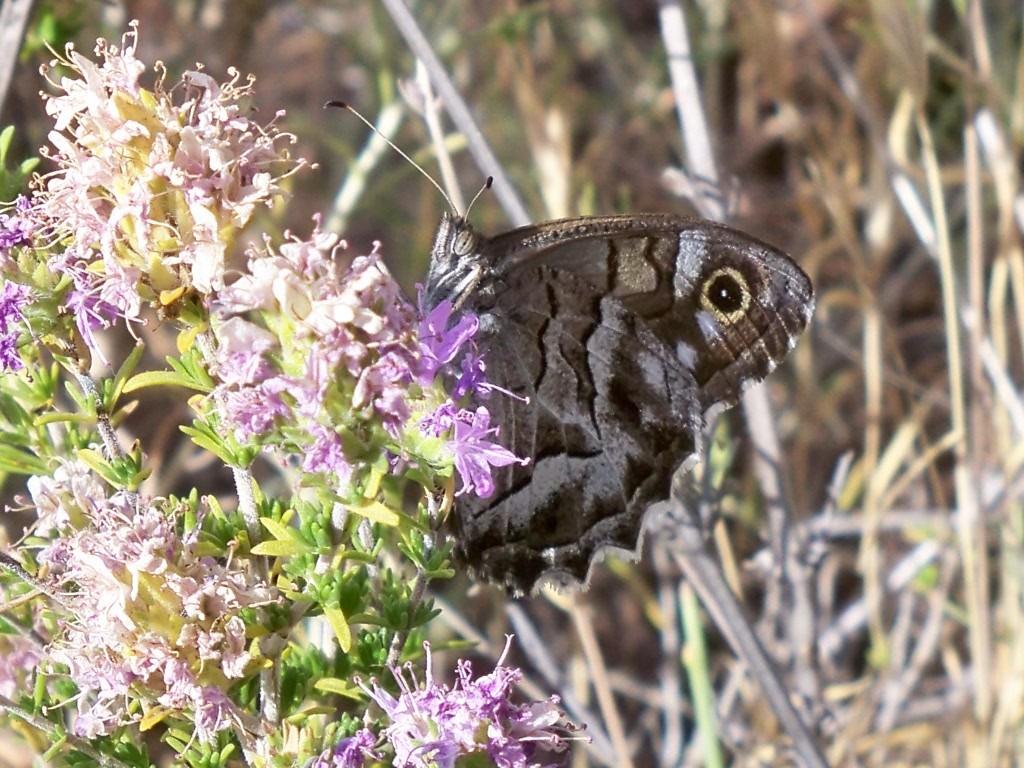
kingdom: Animalia
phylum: Arthropoda
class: Insecta
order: Lepidoptera
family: Nymphalidae
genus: Hipparchia
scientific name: Hipparchia fidia
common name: Striped grayling
